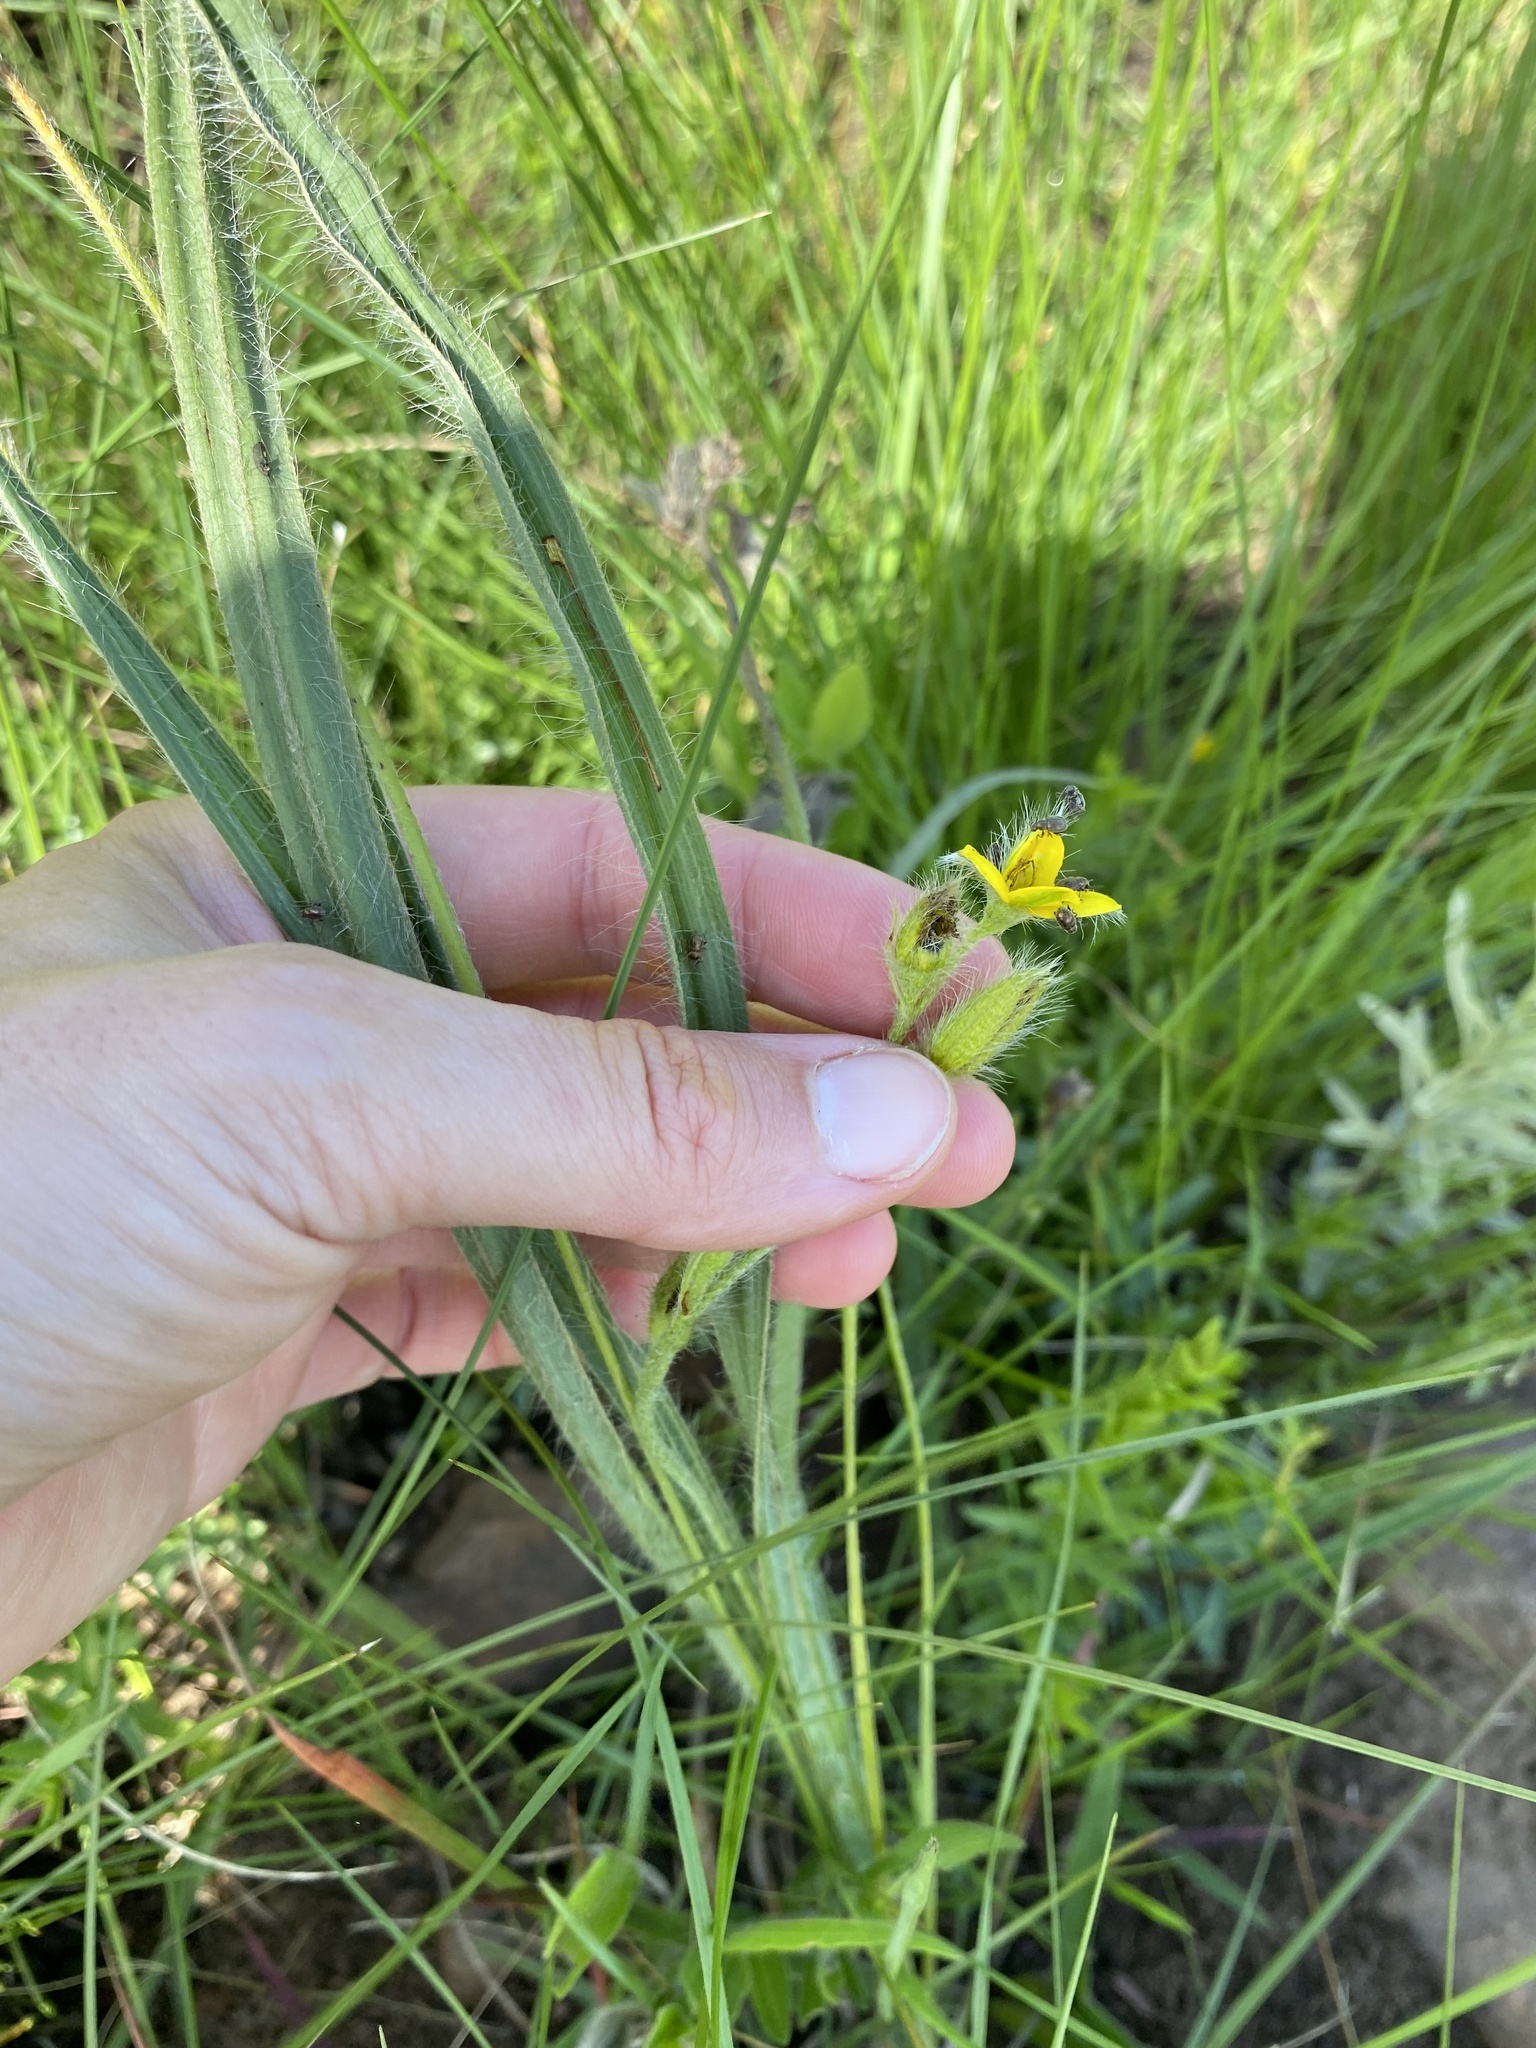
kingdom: Plantae
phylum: Tracheophyta
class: Liliopsida
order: Asparagales
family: Hypoxidaceae
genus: Hypoxis
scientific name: Hypoxis rigidula
